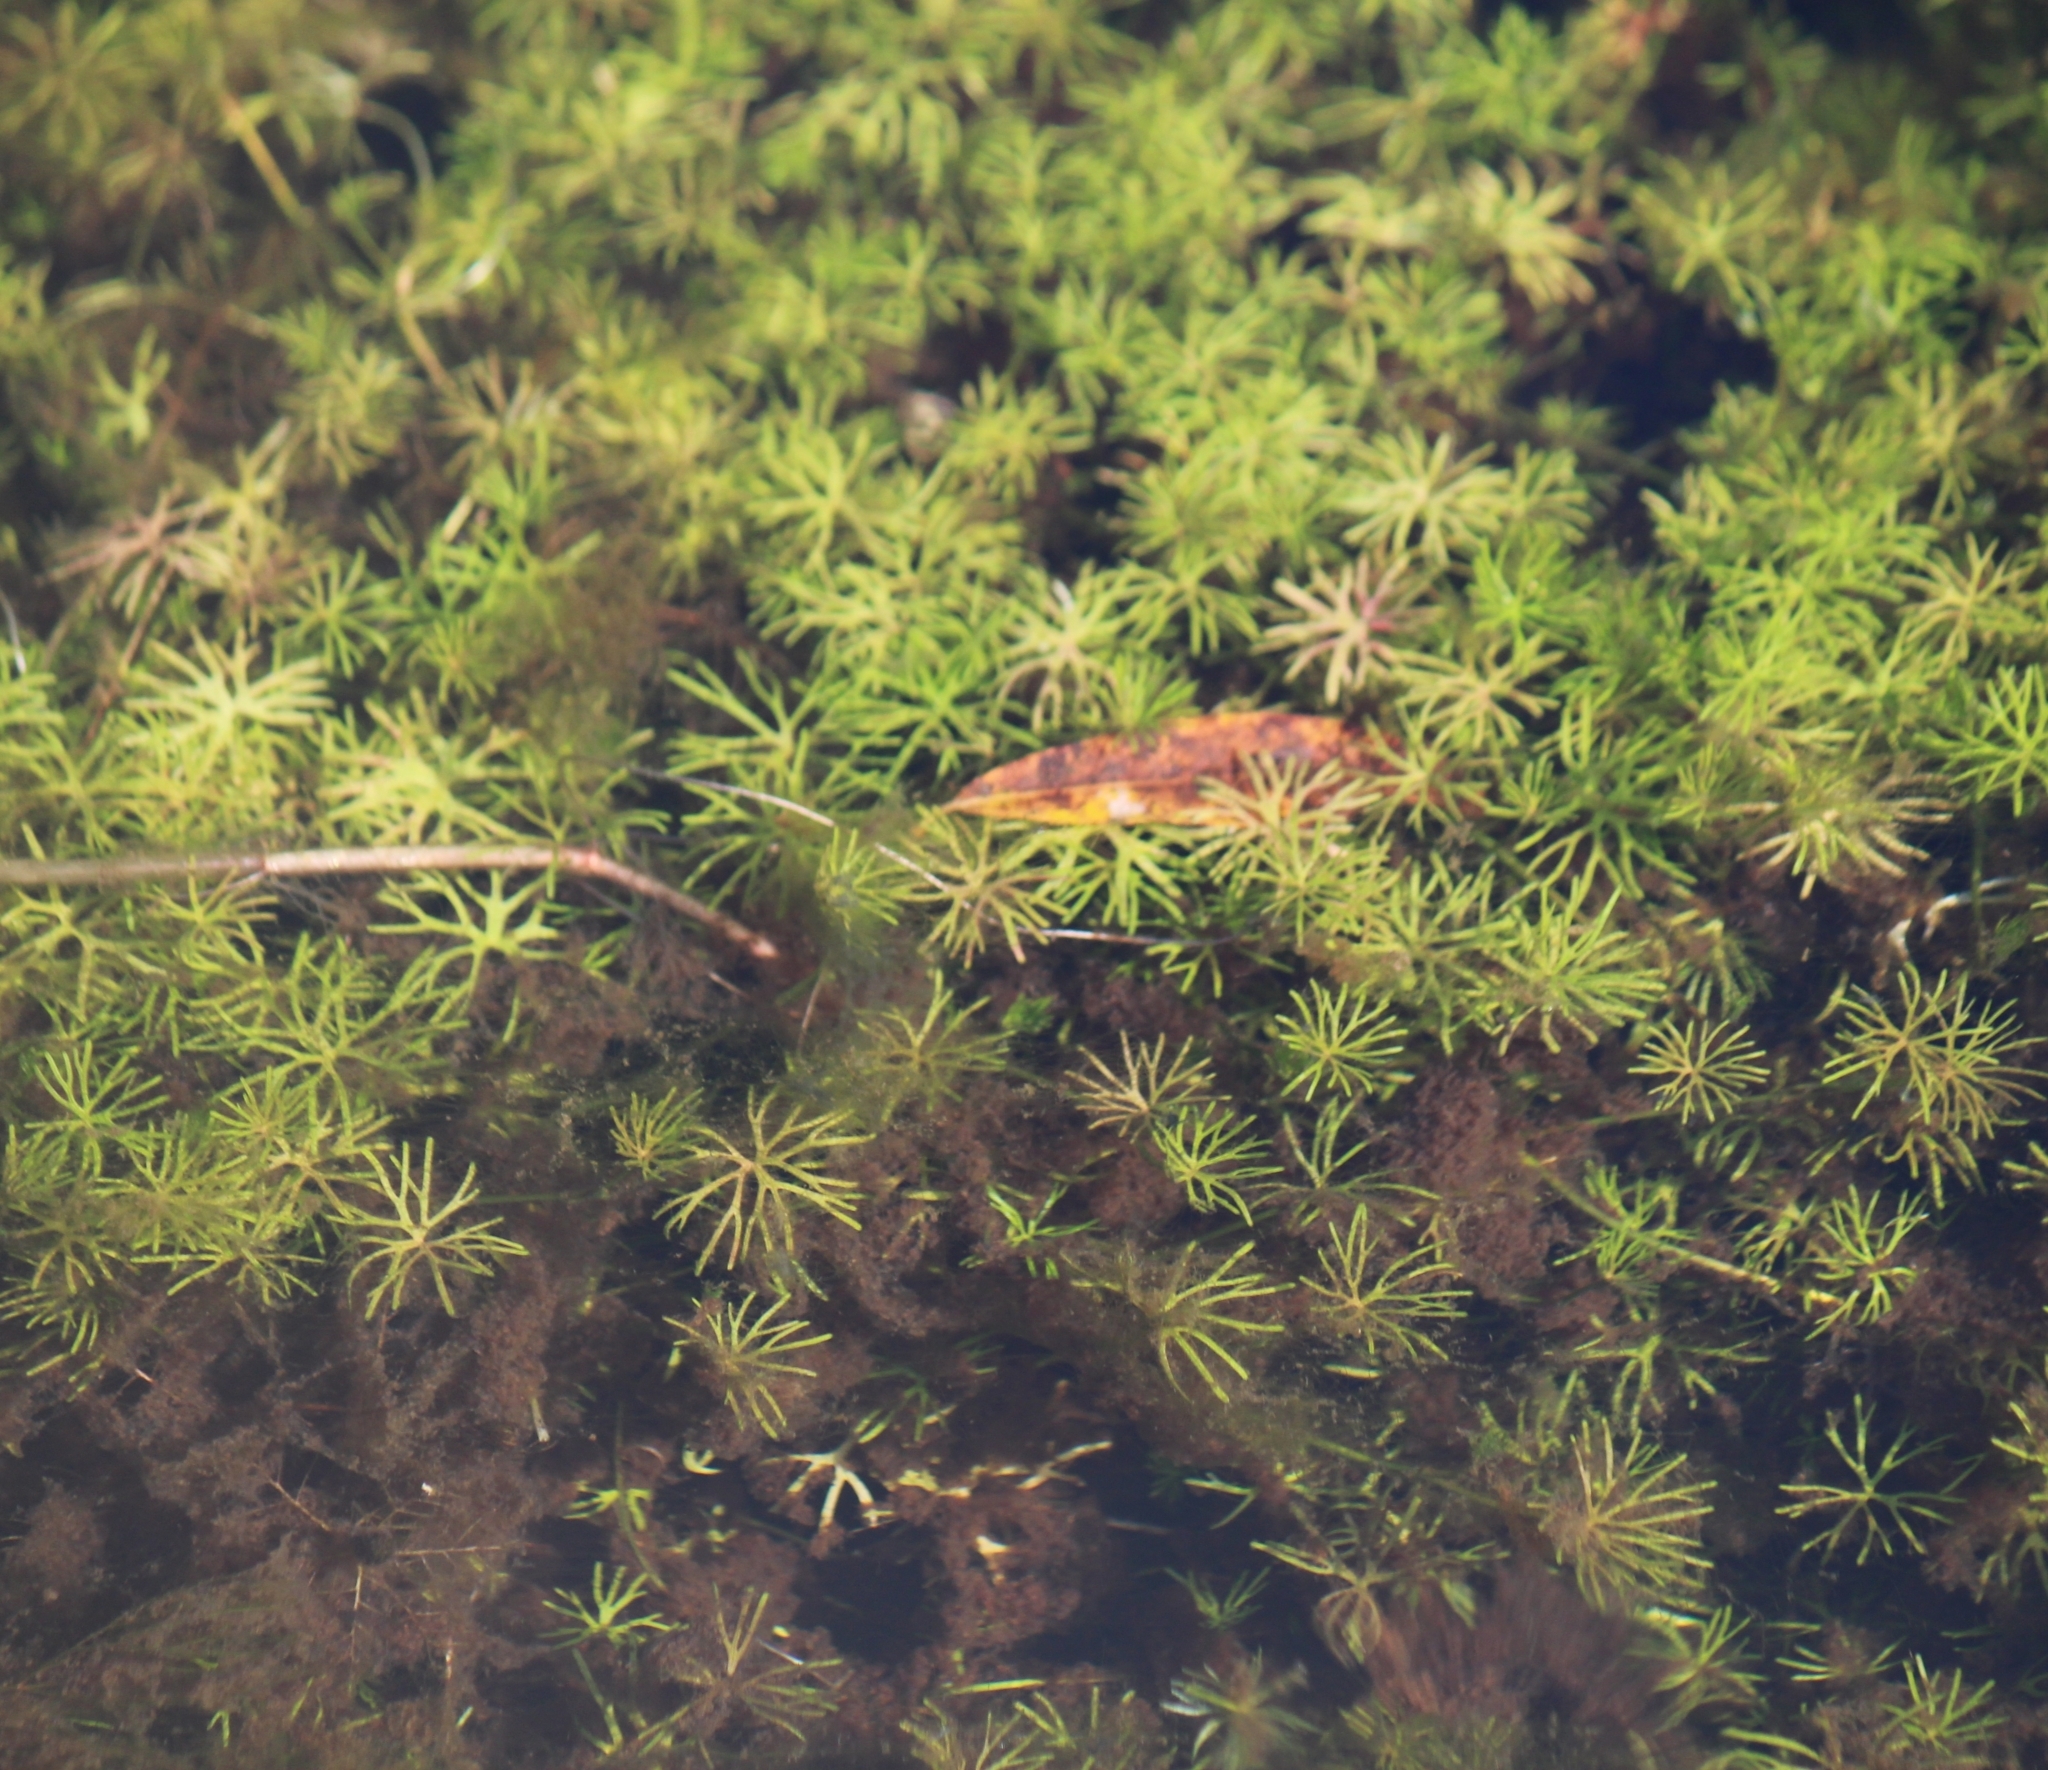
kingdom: Plantae
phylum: Tracheophyta
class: Magnoliopsida
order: Ranunculales
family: Ranunculaceae
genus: Ranunculus
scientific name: Ranunculus gmelinii
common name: Gmelin's buttercup
